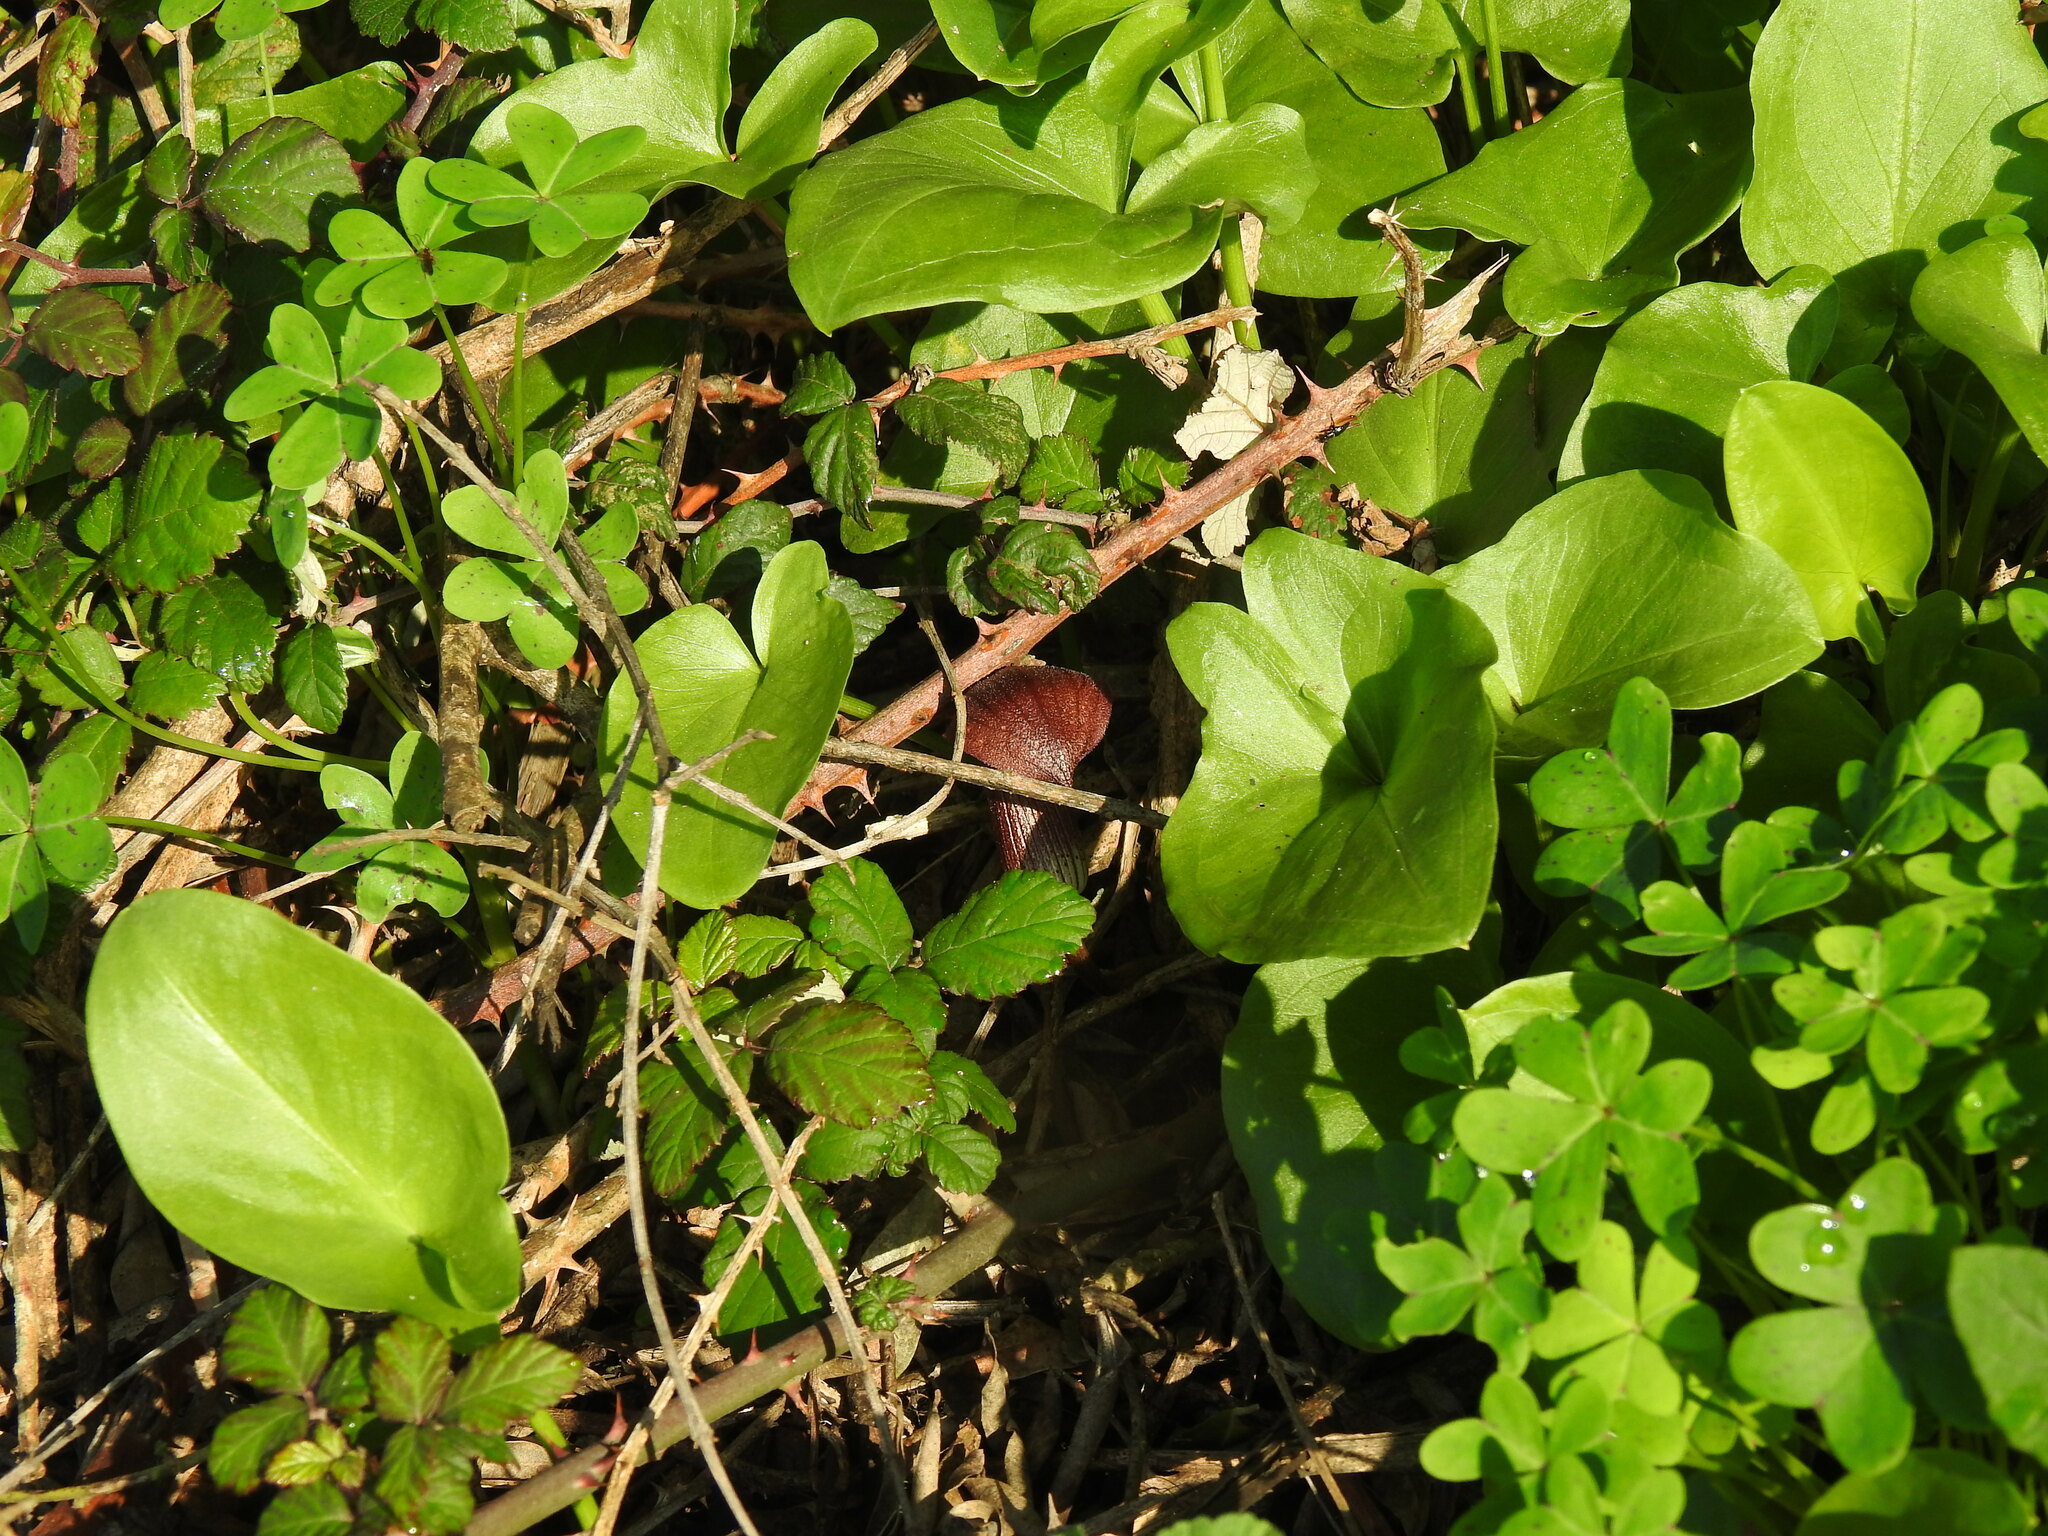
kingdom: Plantae
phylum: Tracheophyta
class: Liliopsida
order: Alismatales
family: Araceae
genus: Arisarum
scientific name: Arisarum simorrhinum
